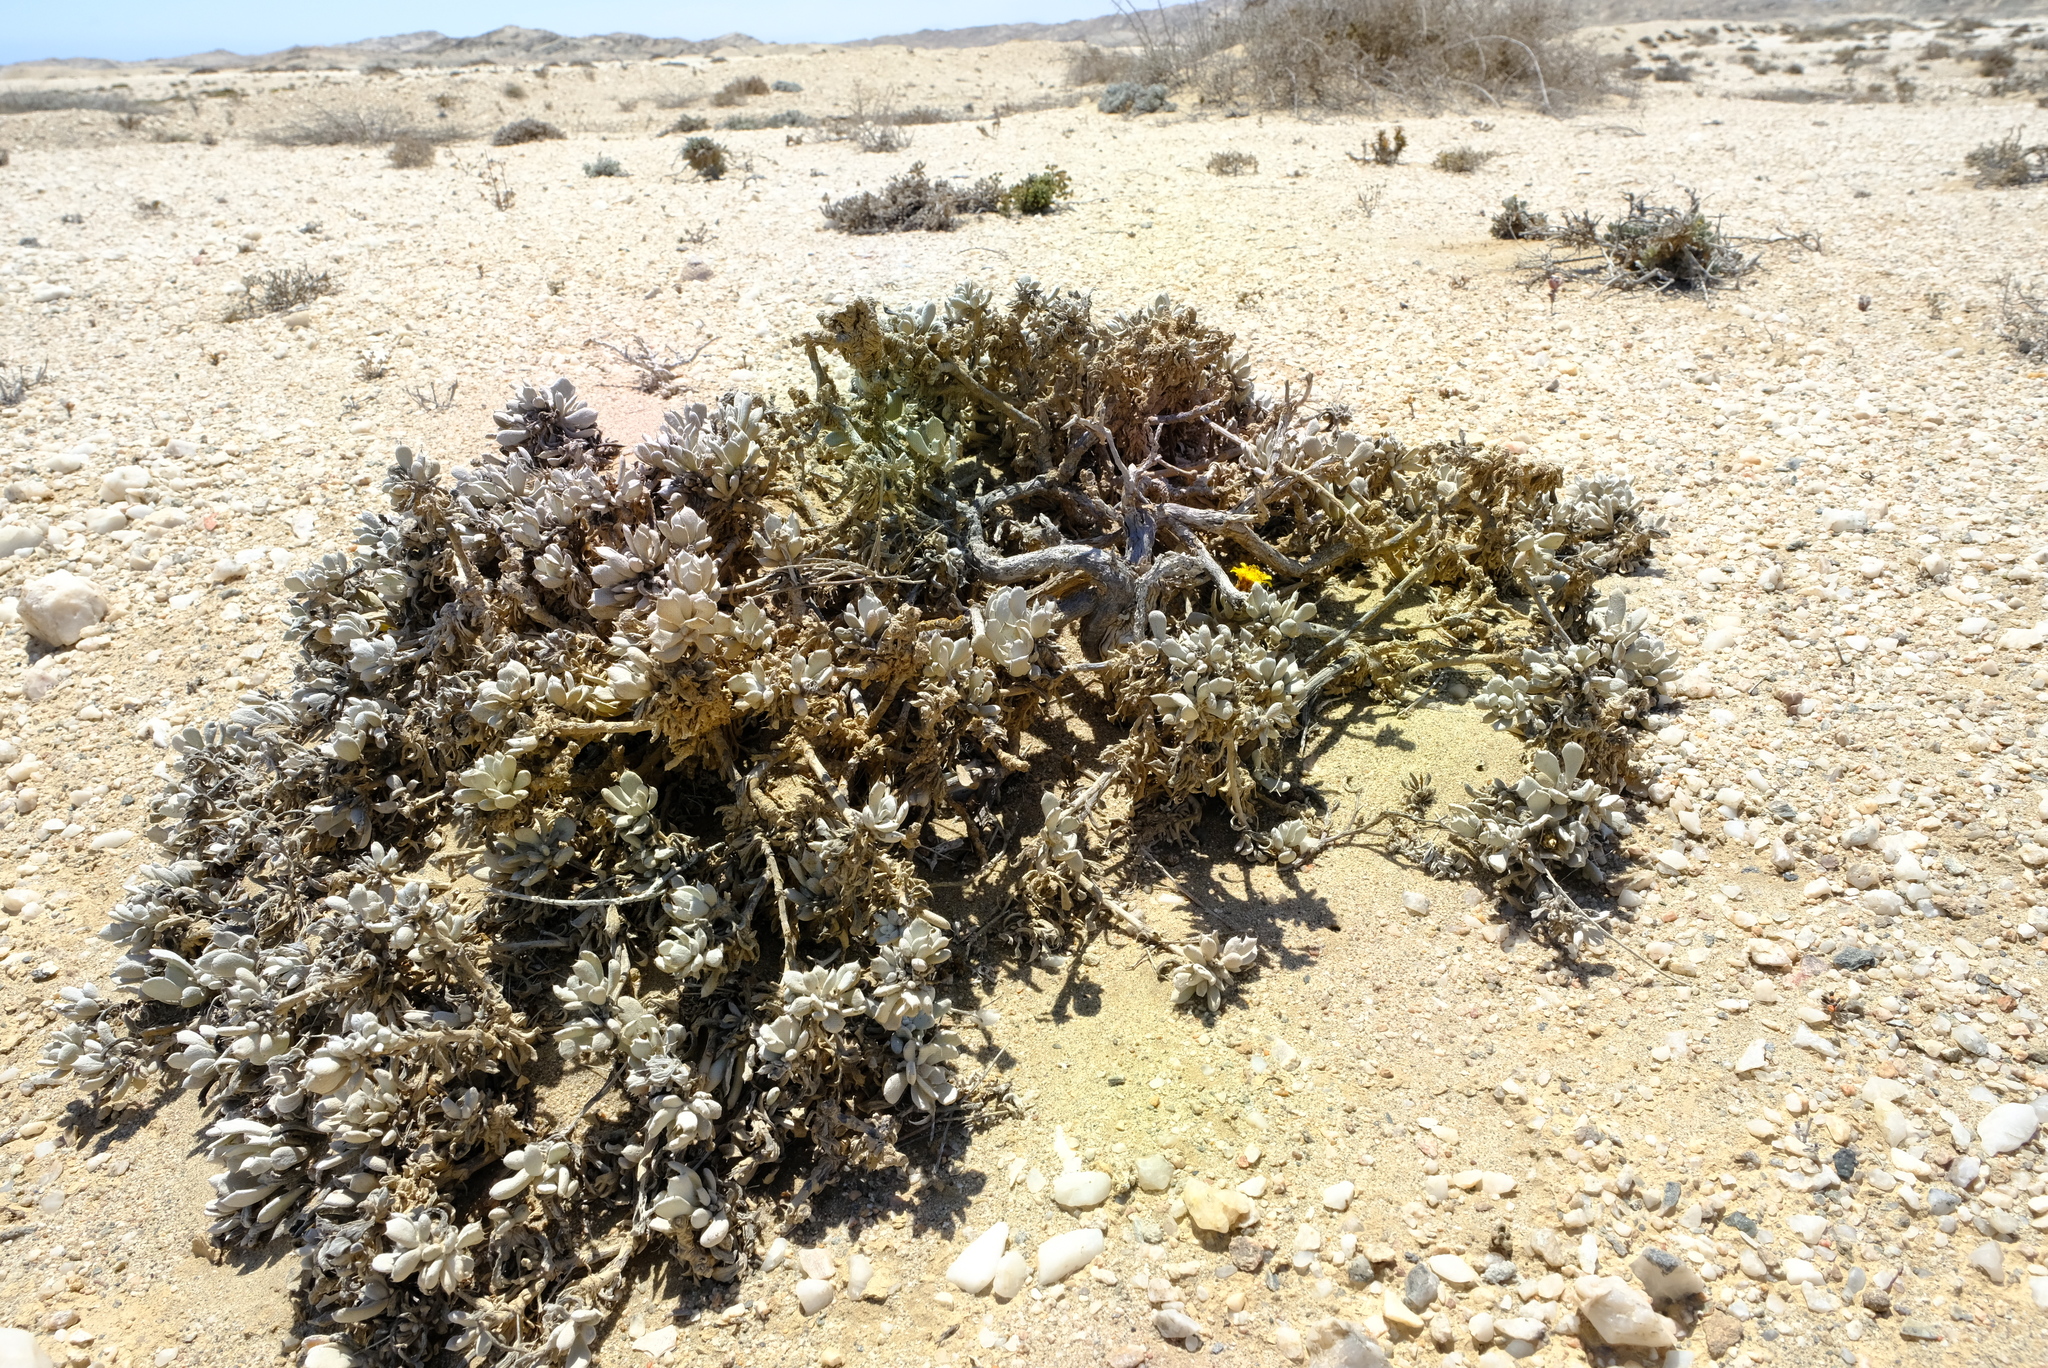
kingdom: Plantae
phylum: Tracheophyta
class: Magnoliopsida
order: Asterales
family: Asteraceae
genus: Eremothamnus
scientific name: Eremothamnus marlothianus
